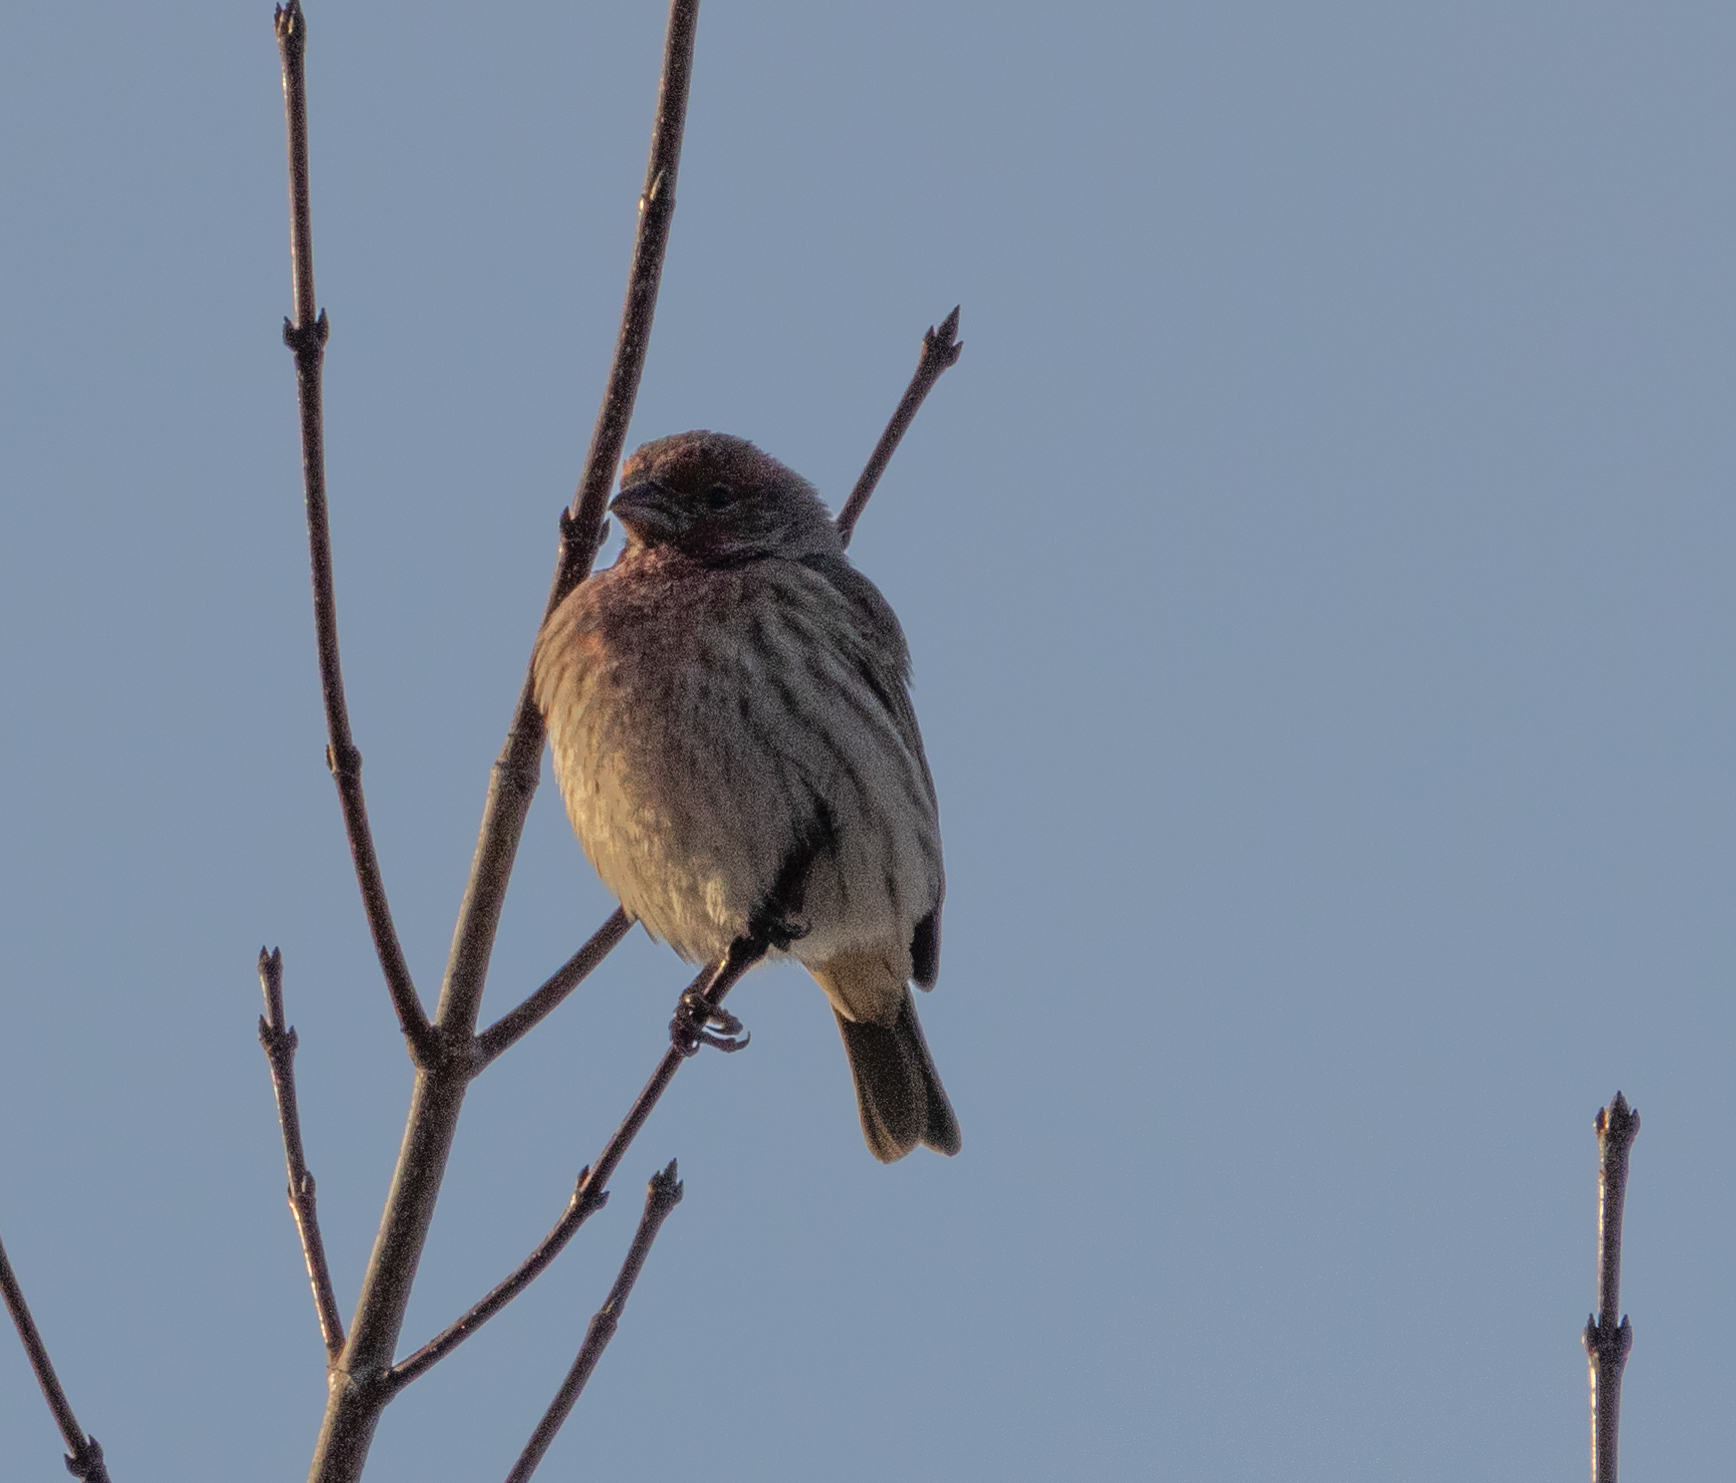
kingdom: Animalia
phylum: Chordata
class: Aves
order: Passeriformes
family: Fringillidae
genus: Haemorhous
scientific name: Haemorhous mexicanus
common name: House finch
